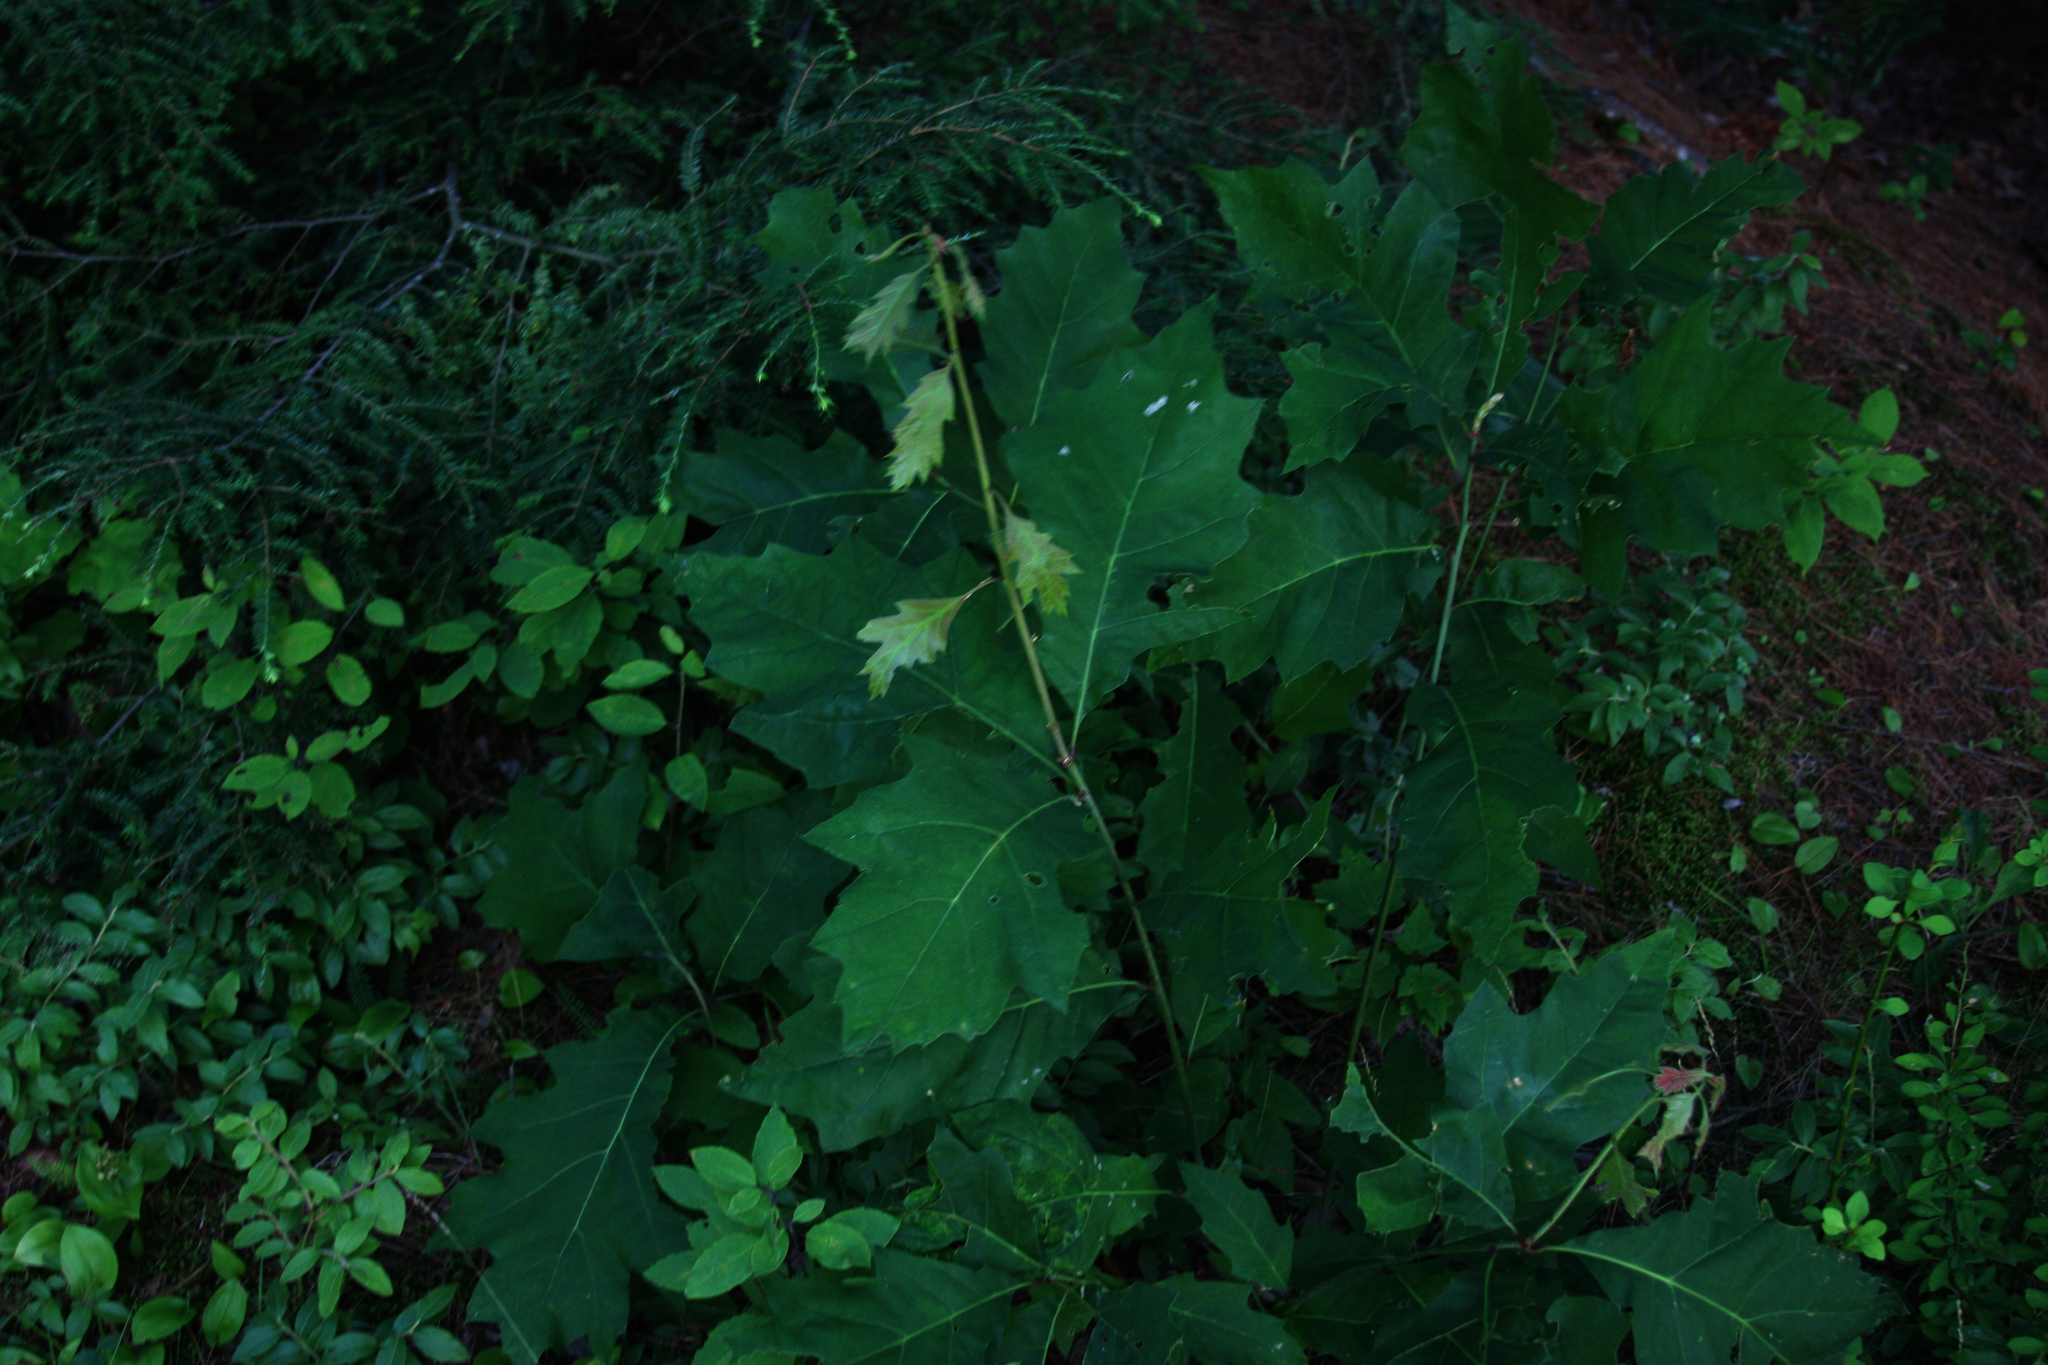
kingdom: Plantae
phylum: Tracheophyta
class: Magnoliopsida
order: Fagales
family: Fagaceae
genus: Quercus
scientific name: Quercus rubra
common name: Red oak
